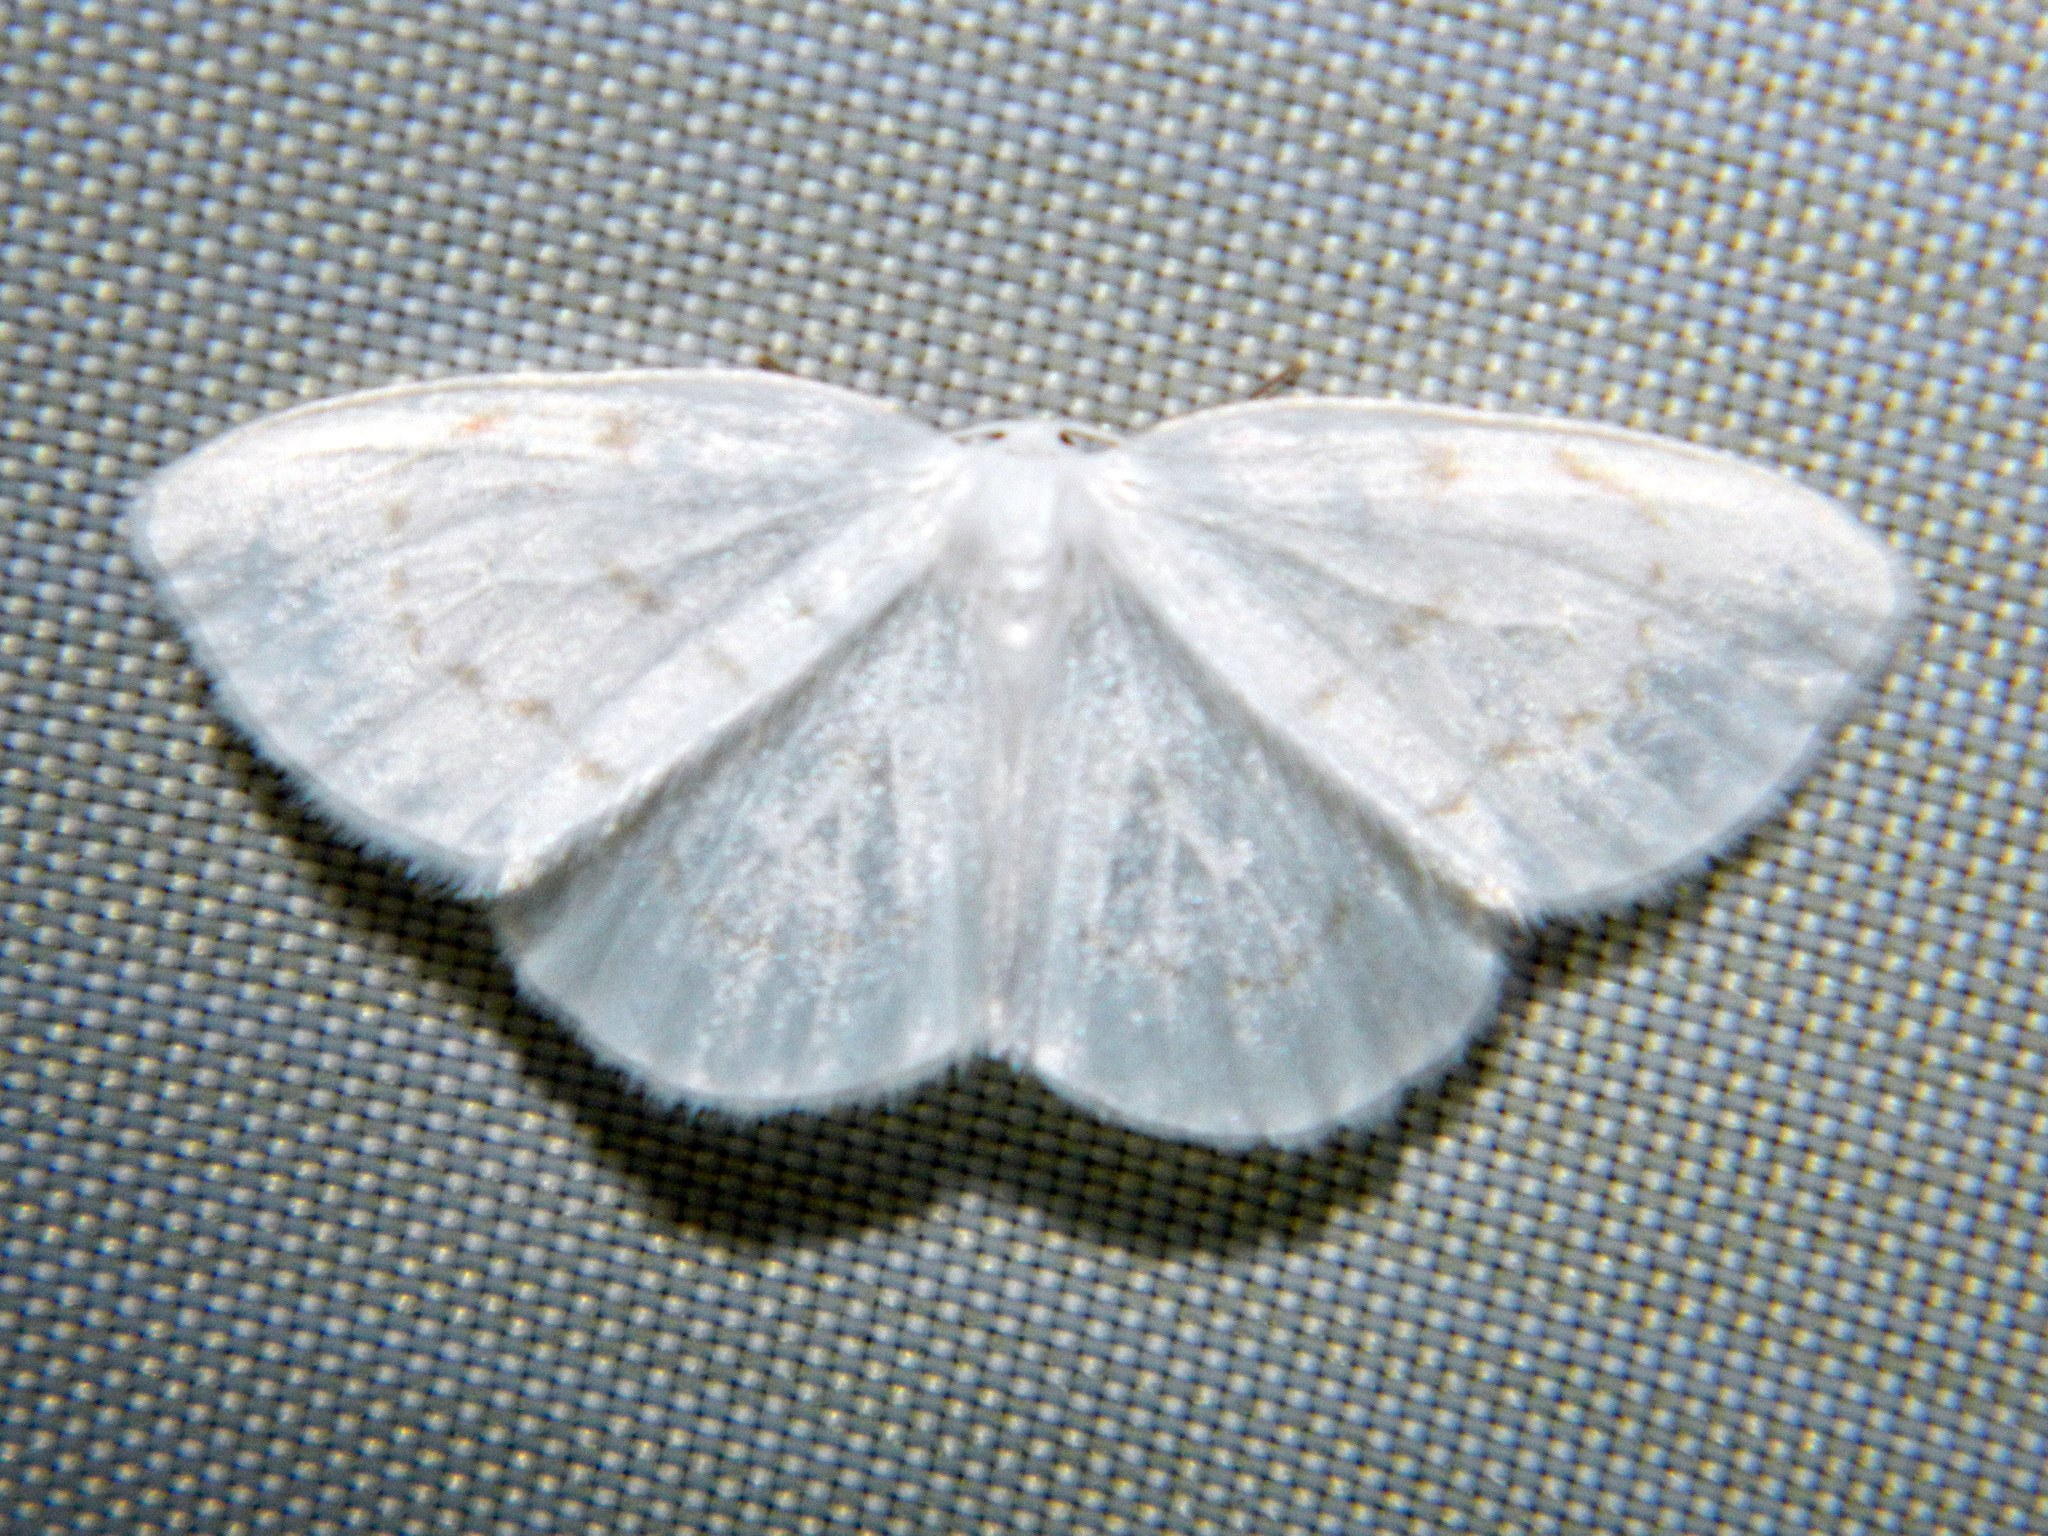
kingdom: Animalia
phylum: Arthropoda
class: Insecta
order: Lepidoptera
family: Drepanidae
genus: Eudeilinia
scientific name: Eudeilinia herminiata
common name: Northern eudeilinea moth
